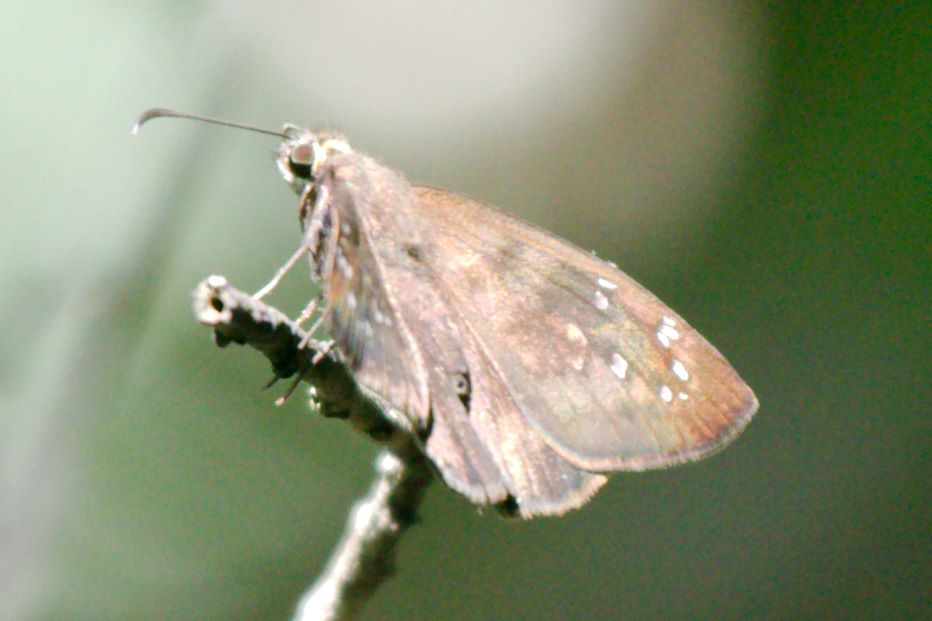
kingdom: Animalia
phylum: Arthropoda
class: Insecta
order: Lepidoptera
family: Hesperiidae
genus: Ephyriades
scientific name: Ephyriades brunnea
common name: Florida duskywing
